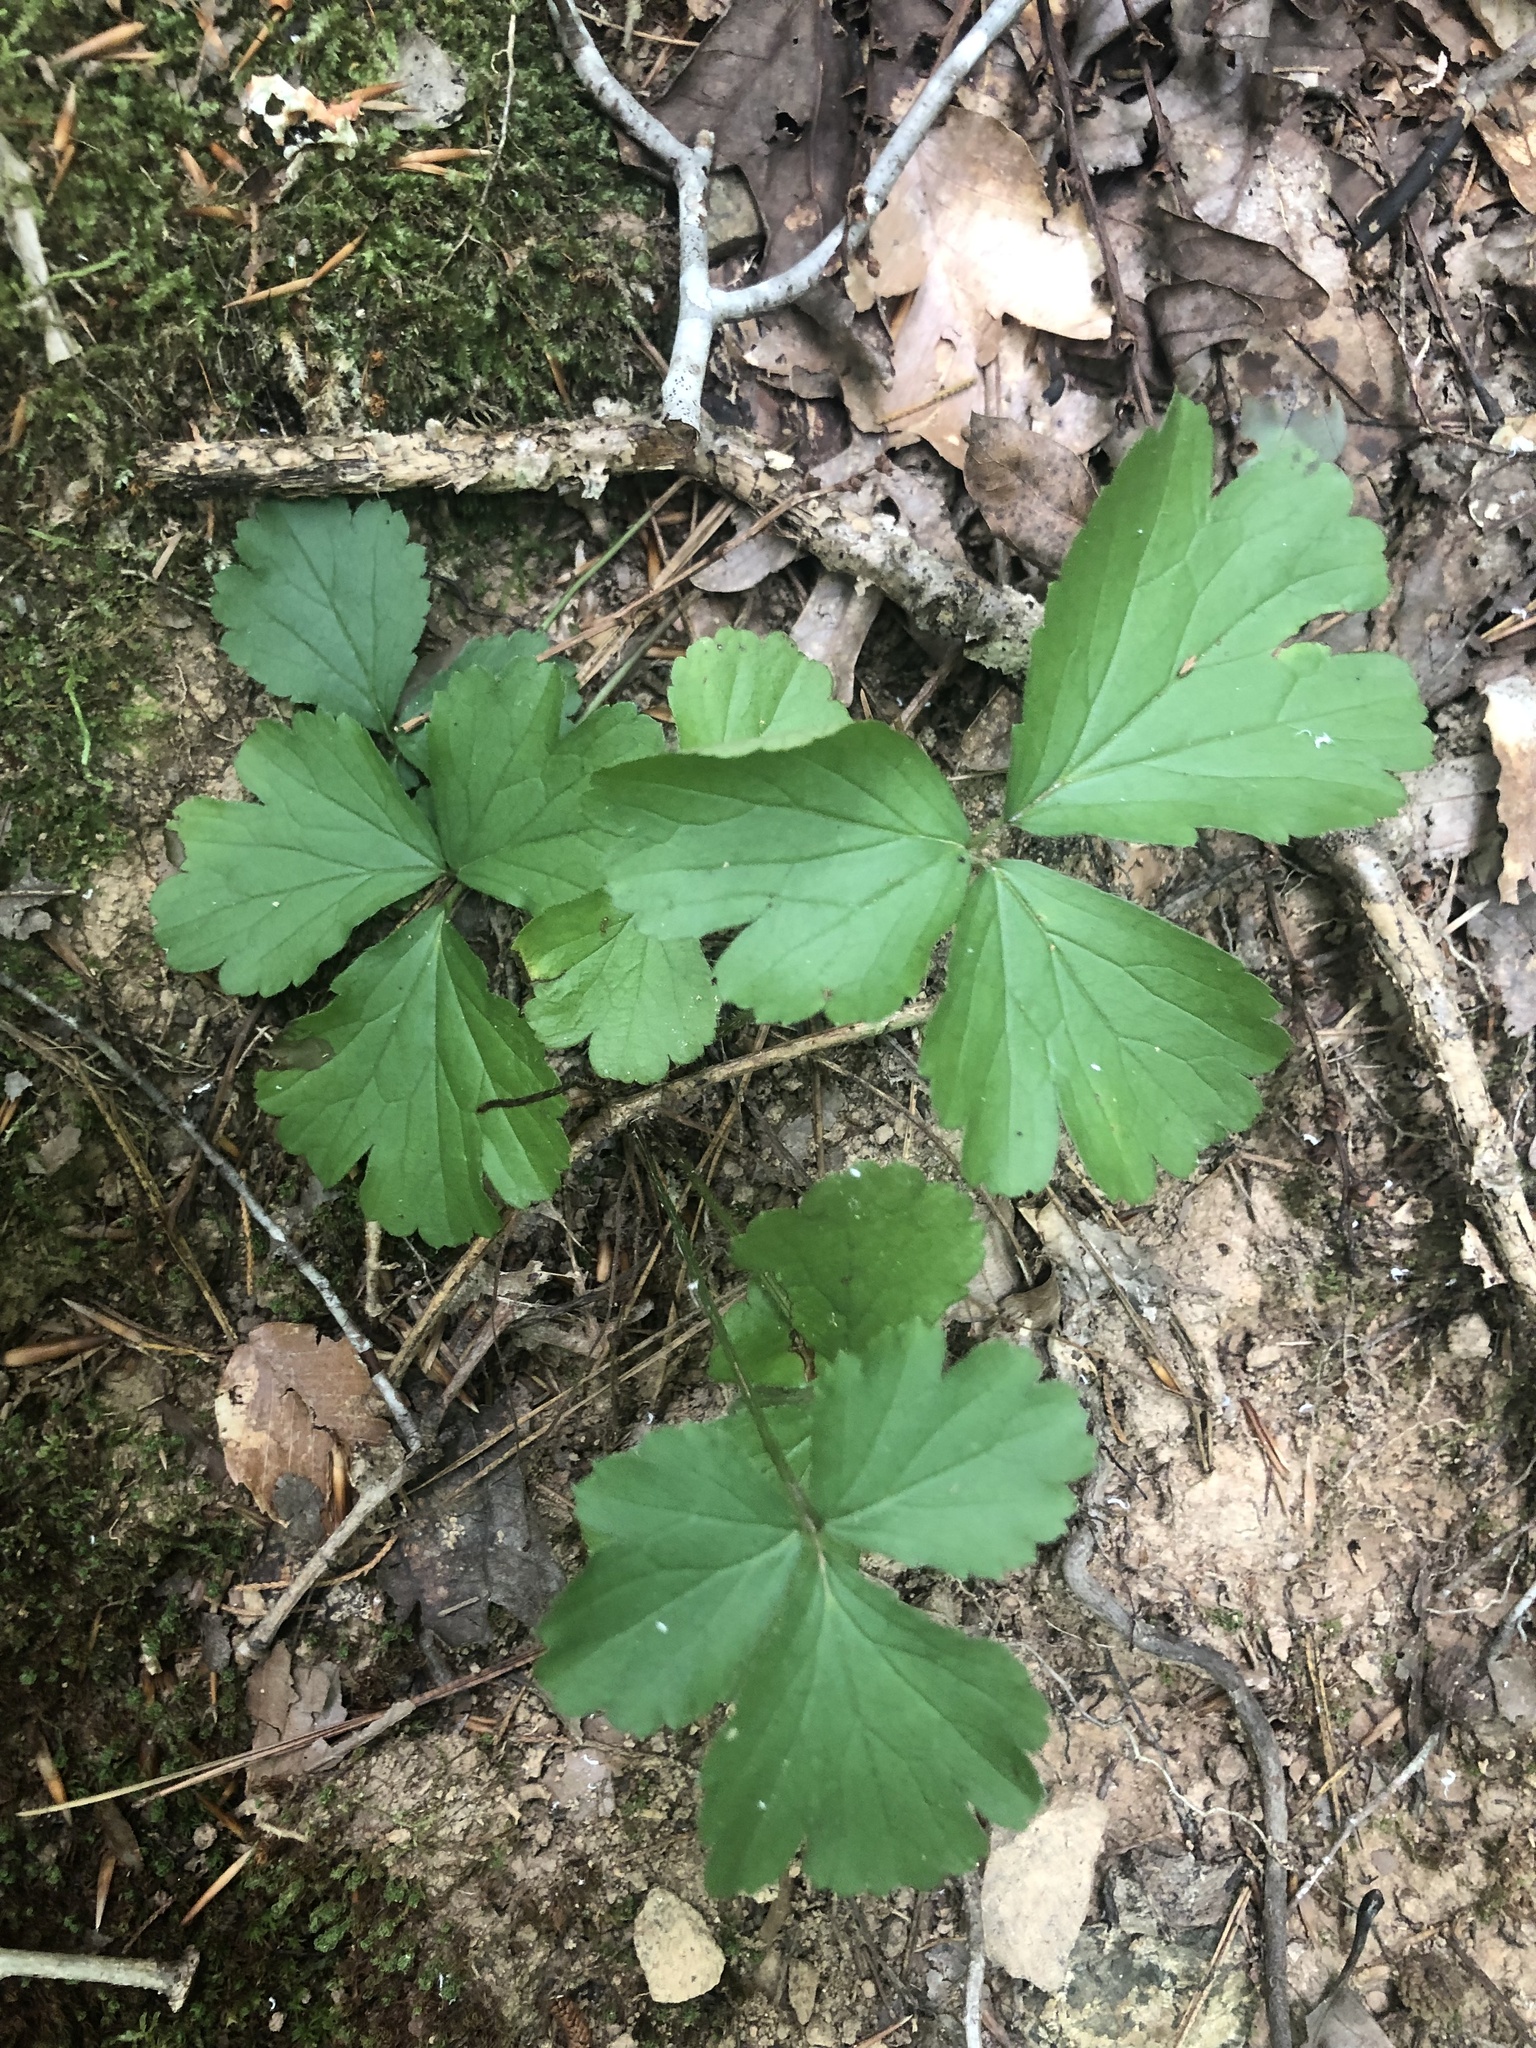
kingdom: Plantae
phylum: Tracheophyta
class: Magnoliopsida
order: Rosales
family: Rosaceae
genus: Geum
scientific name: Geum donianum
